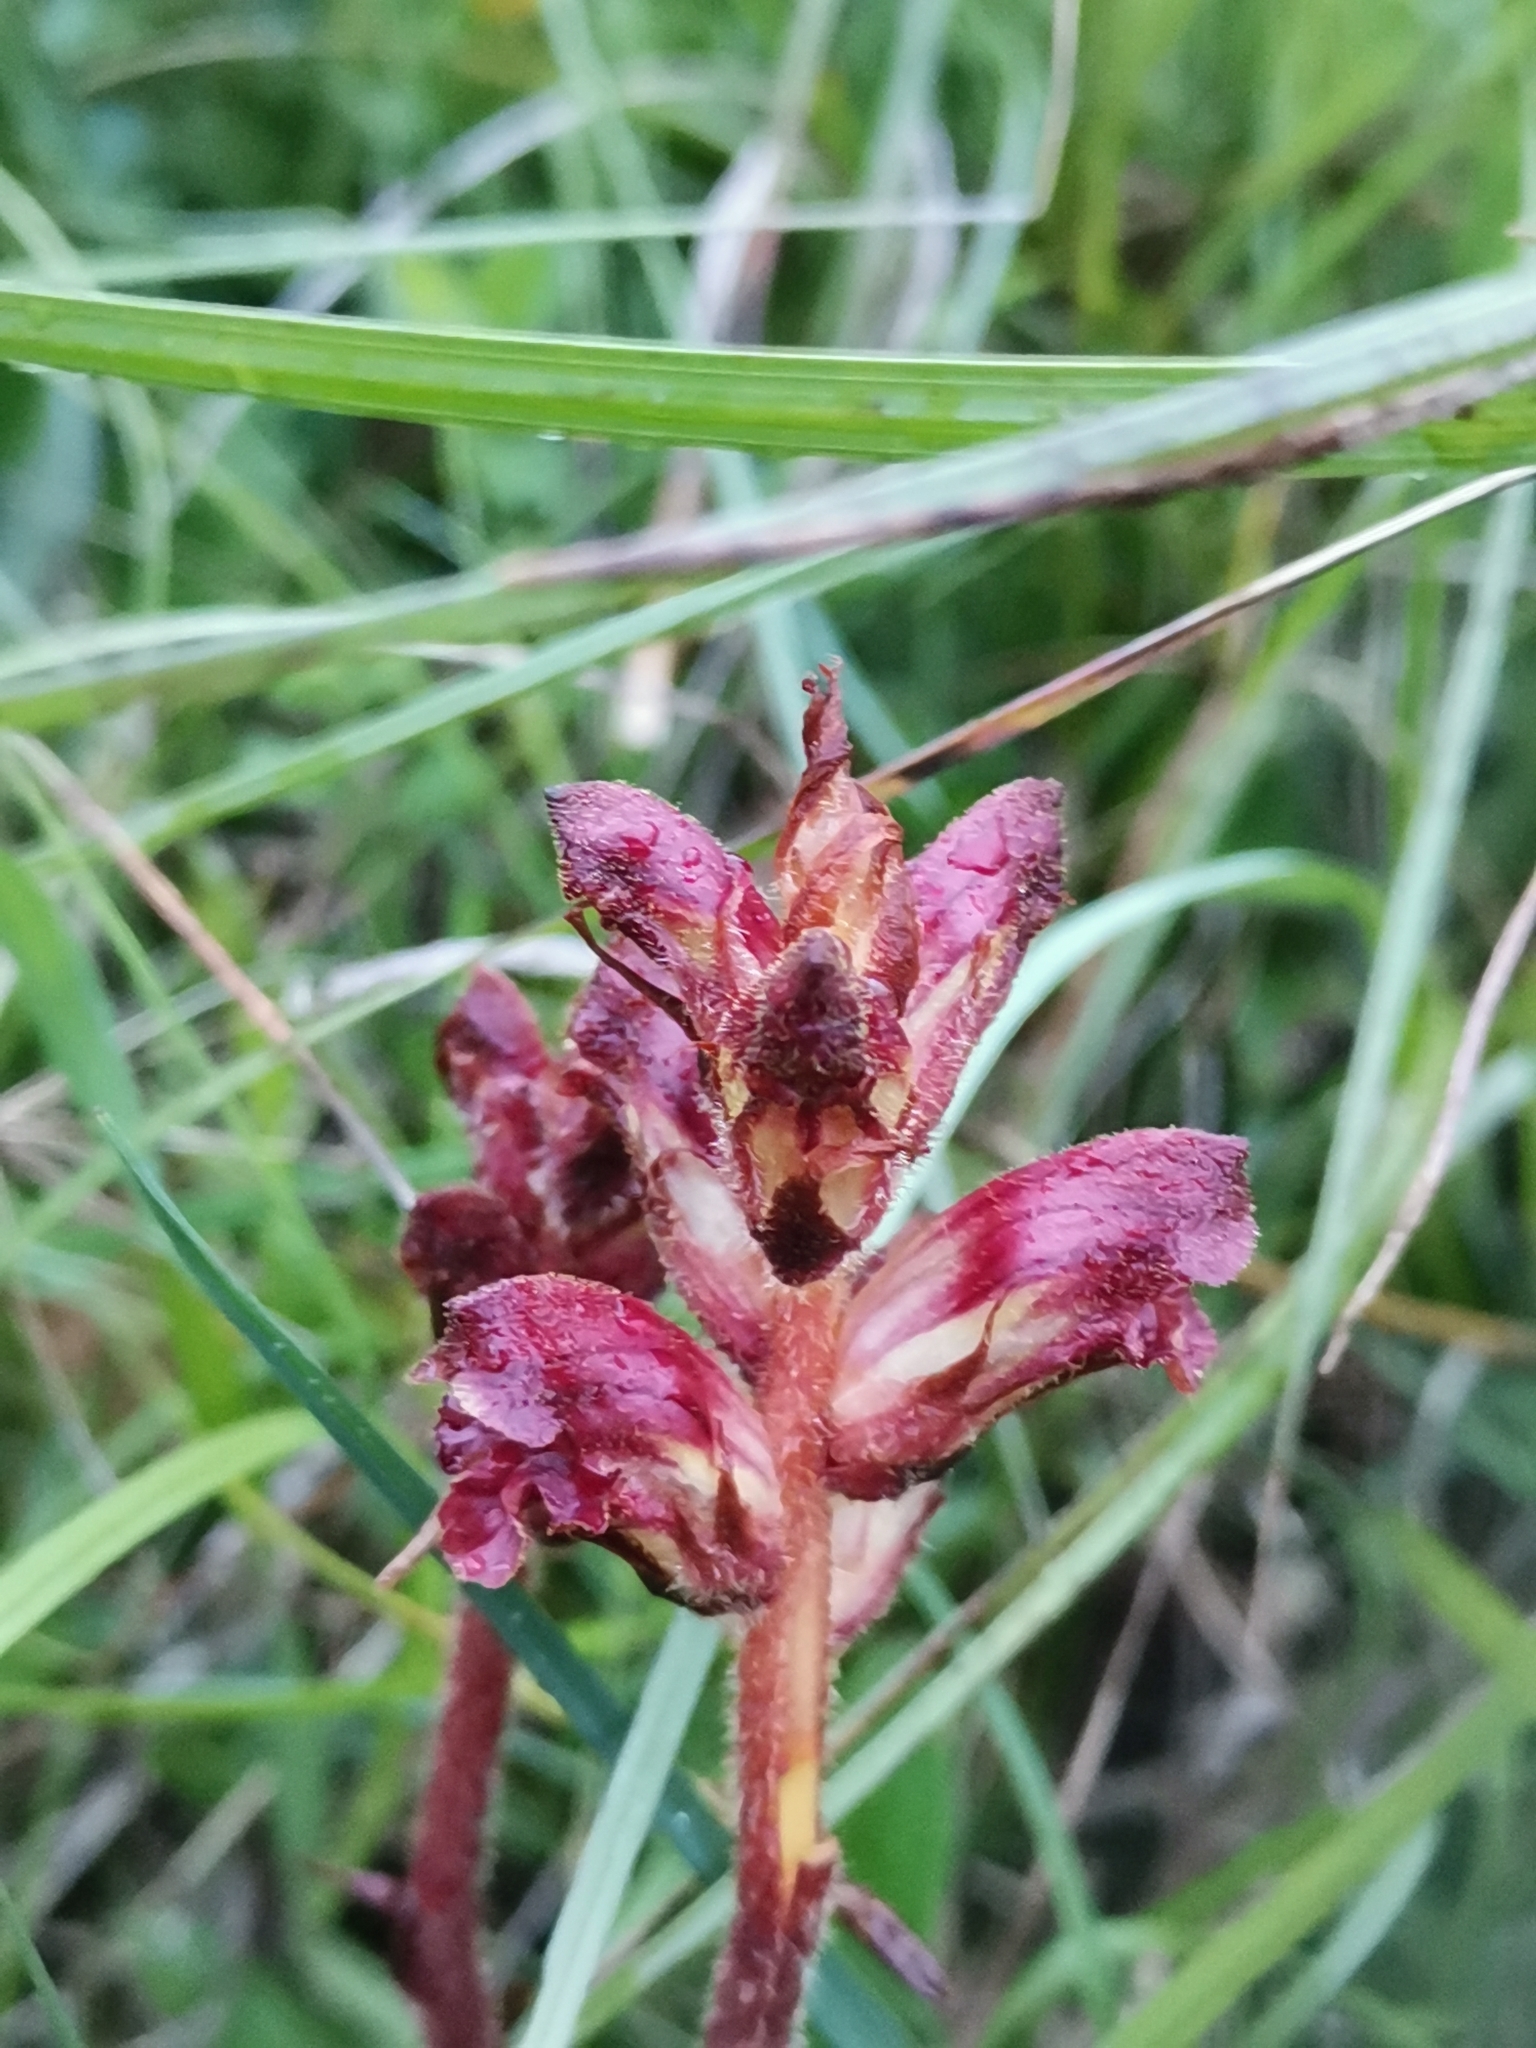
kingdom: Plantae
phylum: Tracheophyta
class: Magnoliopsida
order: Lamiales
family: Orobanchaceae
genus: Orobanche
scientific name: Orobanche gracilis
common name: Slender broomrape
